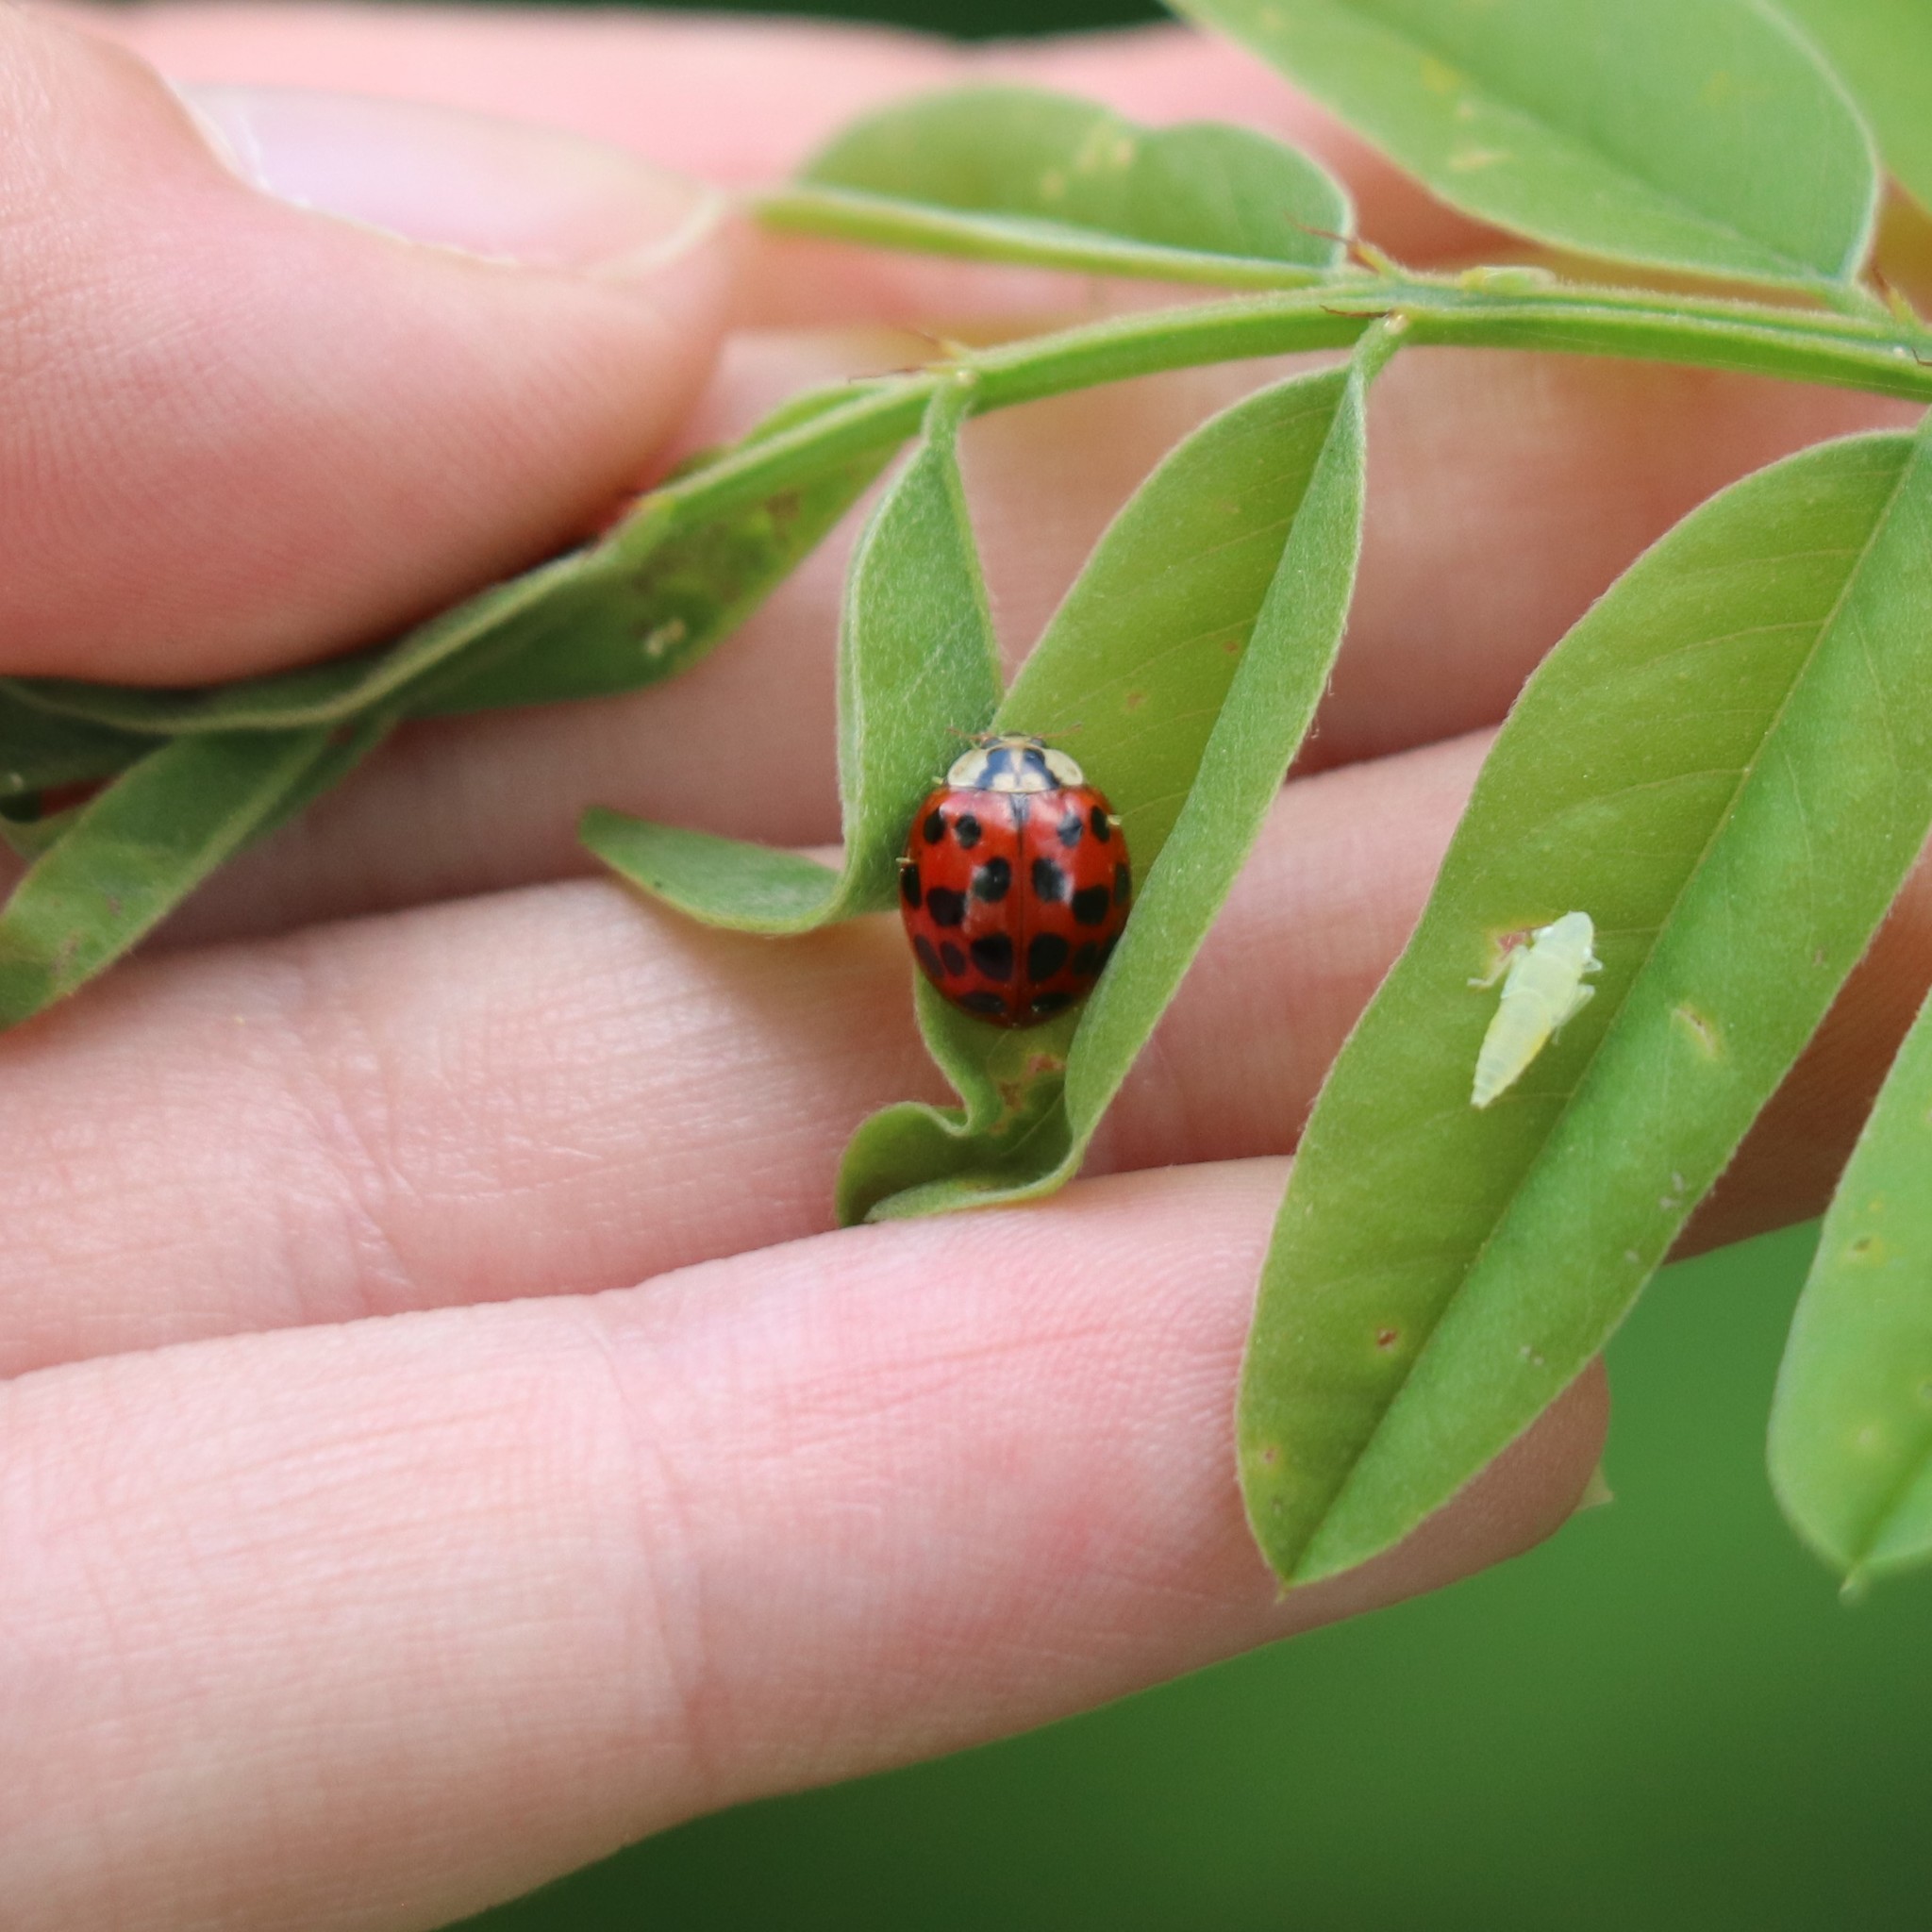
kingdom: Fungi
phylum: Ascomycota
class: Laboulbeniomycetes
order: Laboulbeniales
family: Laboulbeniaceae
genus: Hesperomyces
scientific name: Hesperomyces harmoniae
